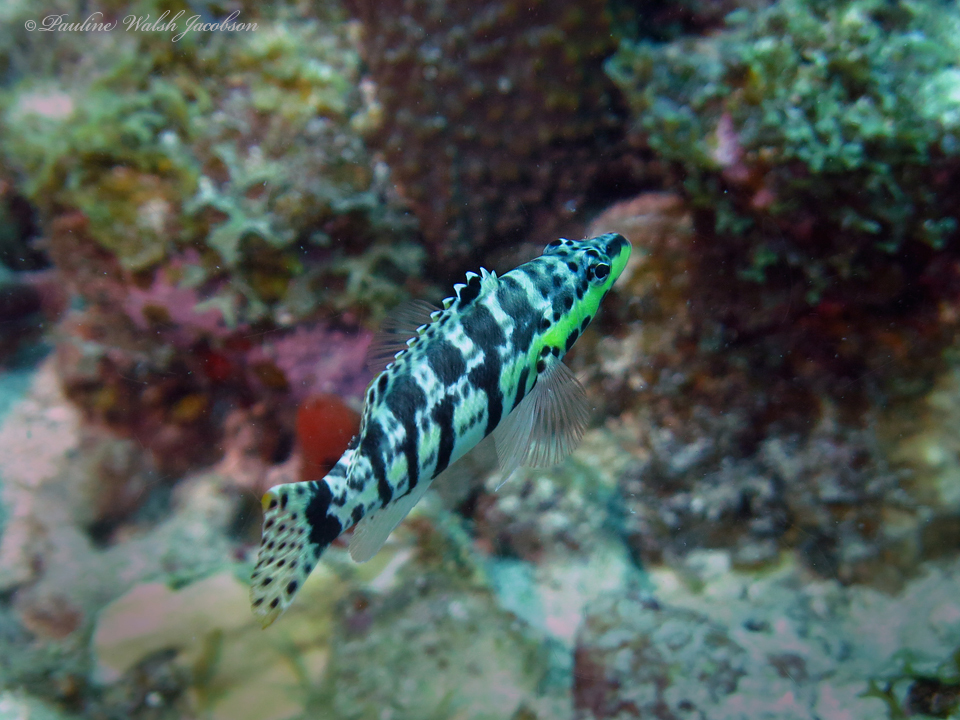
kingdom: Animalia
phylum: Chordata
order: Perciformes
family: Serranidae
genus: Serranus
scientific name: Serranus tigrinus
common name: Harlequin bass
